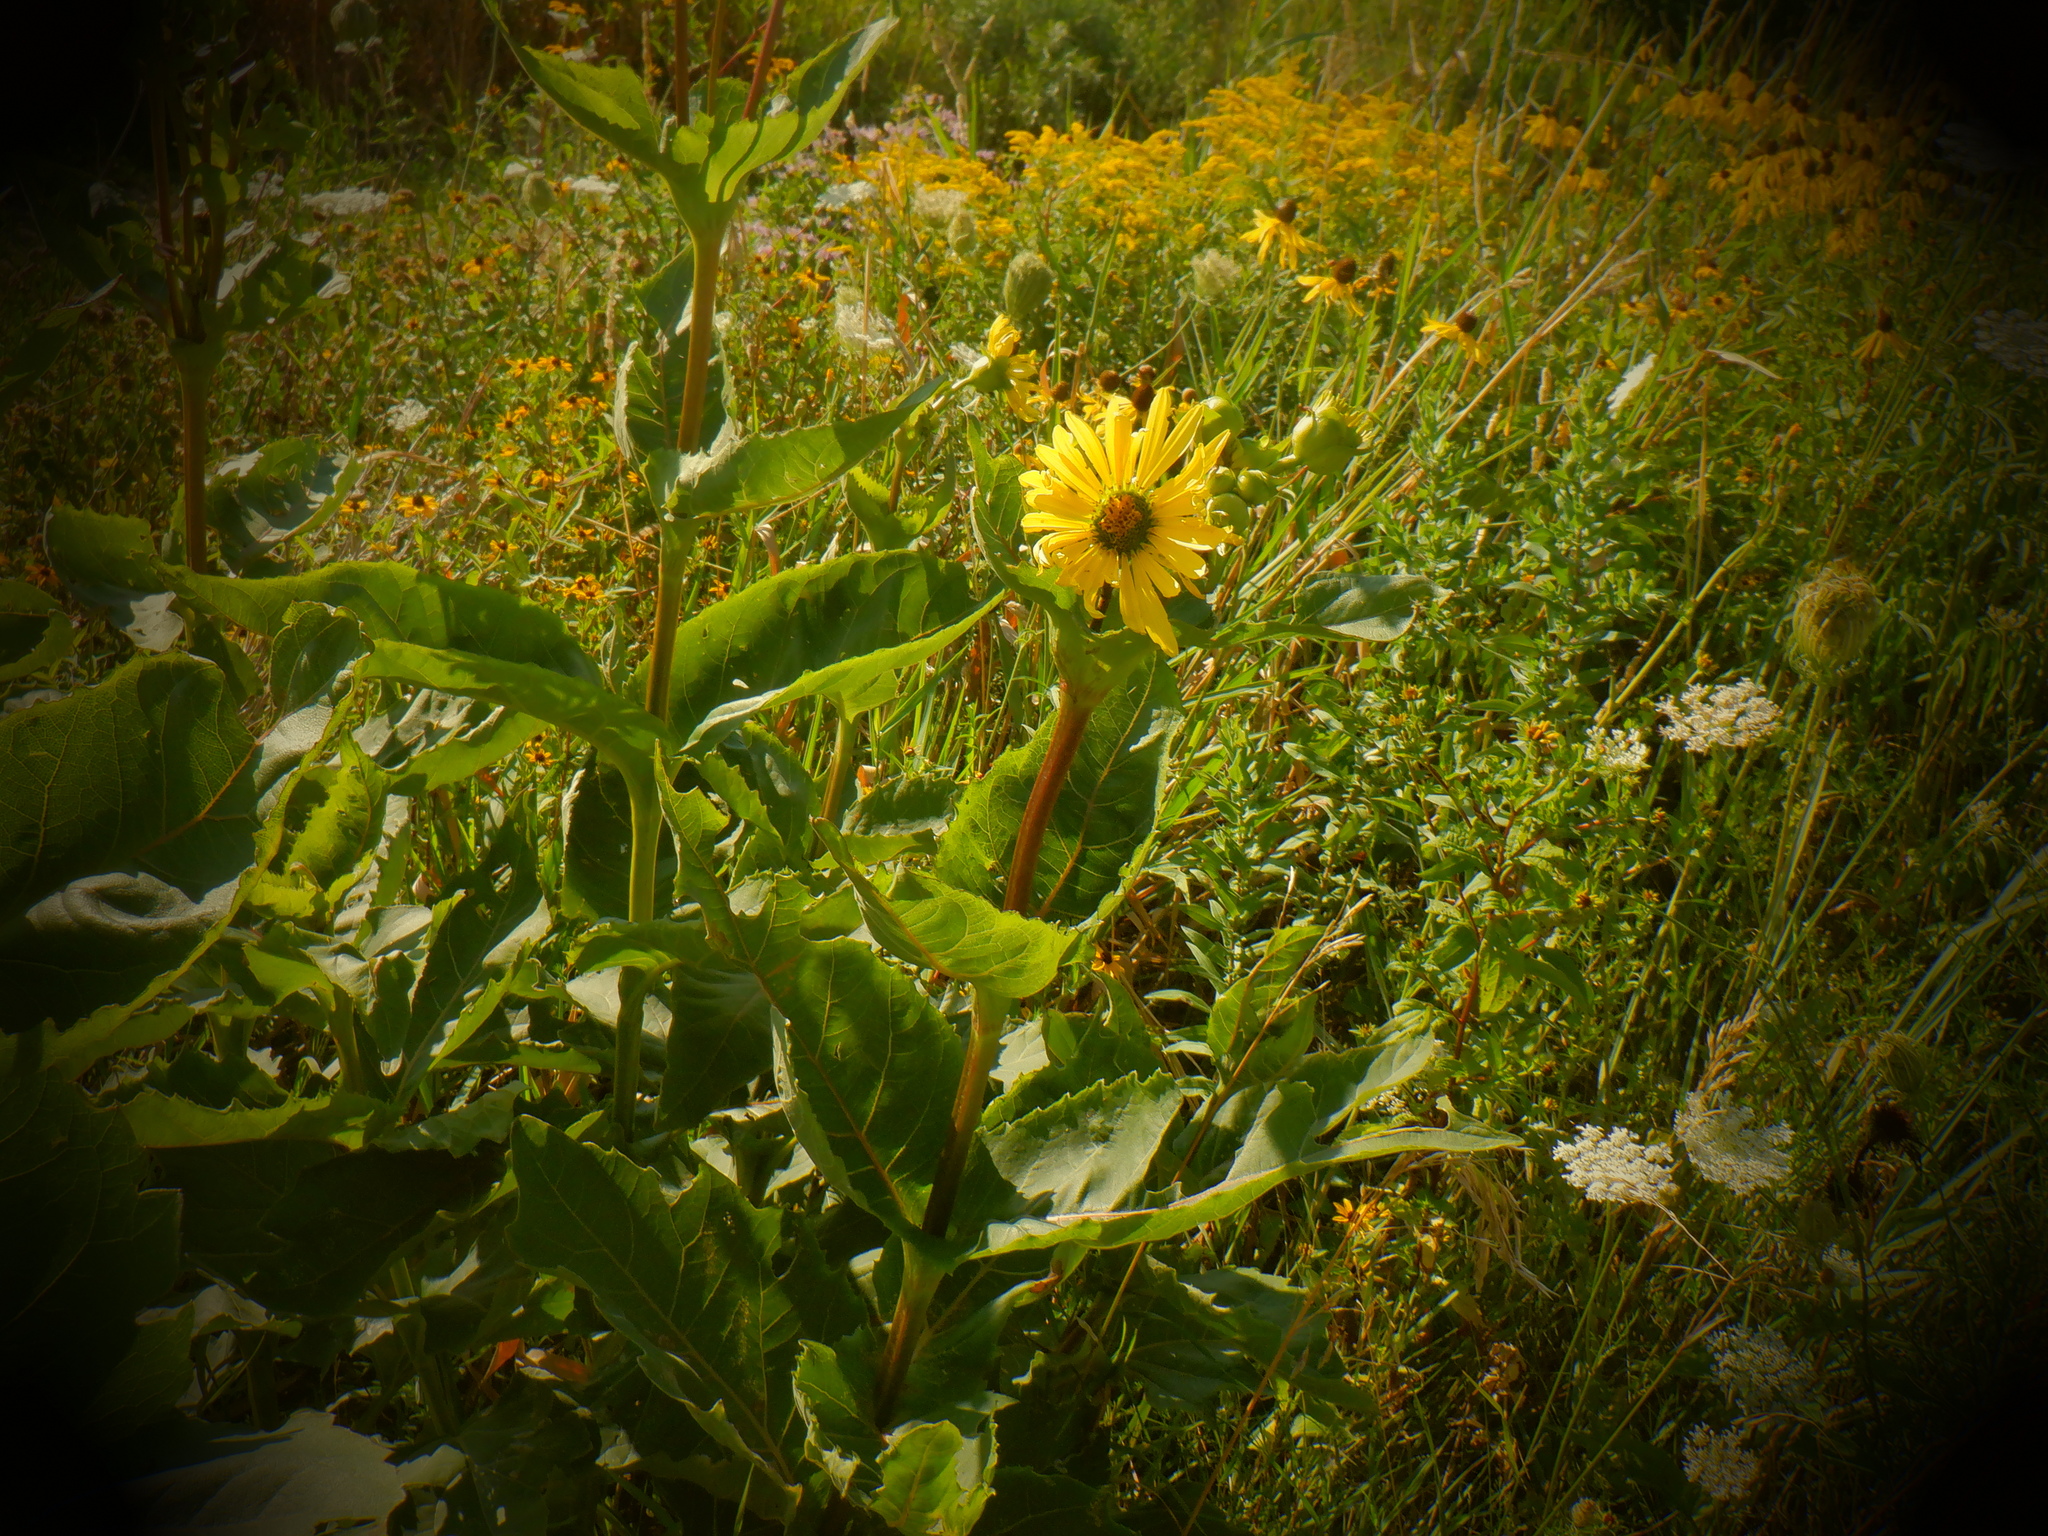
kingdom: Plantae
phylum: Tracheophyta
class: Magnoliopsida
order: Asterales
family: Asteraceae
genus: Silphium
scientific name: Silphium perfoliatum
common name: Cup-plant
